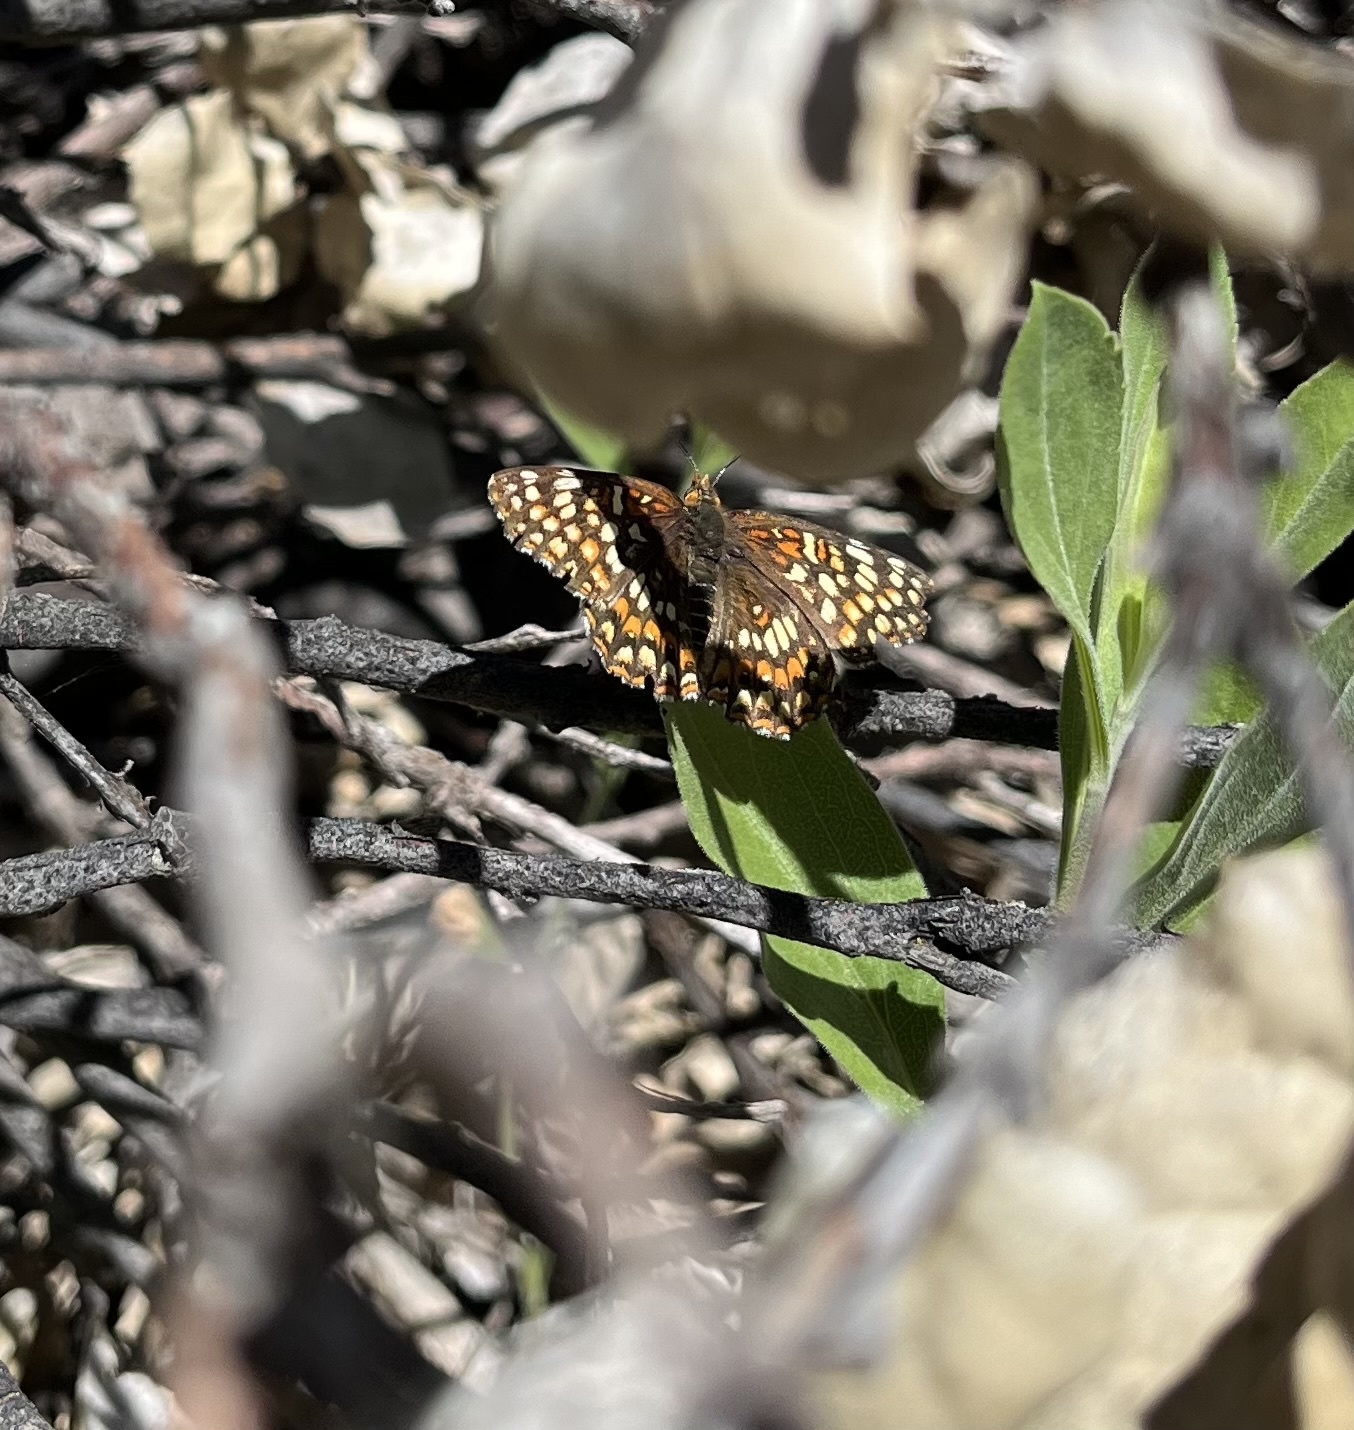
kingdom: Animalia
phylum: Arthropoda
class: Insecta
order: Lepidoptera
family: Nymphalidae
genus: Chlosyne
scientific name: Chlosyne gabbii
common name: Gabb's checkerspot
